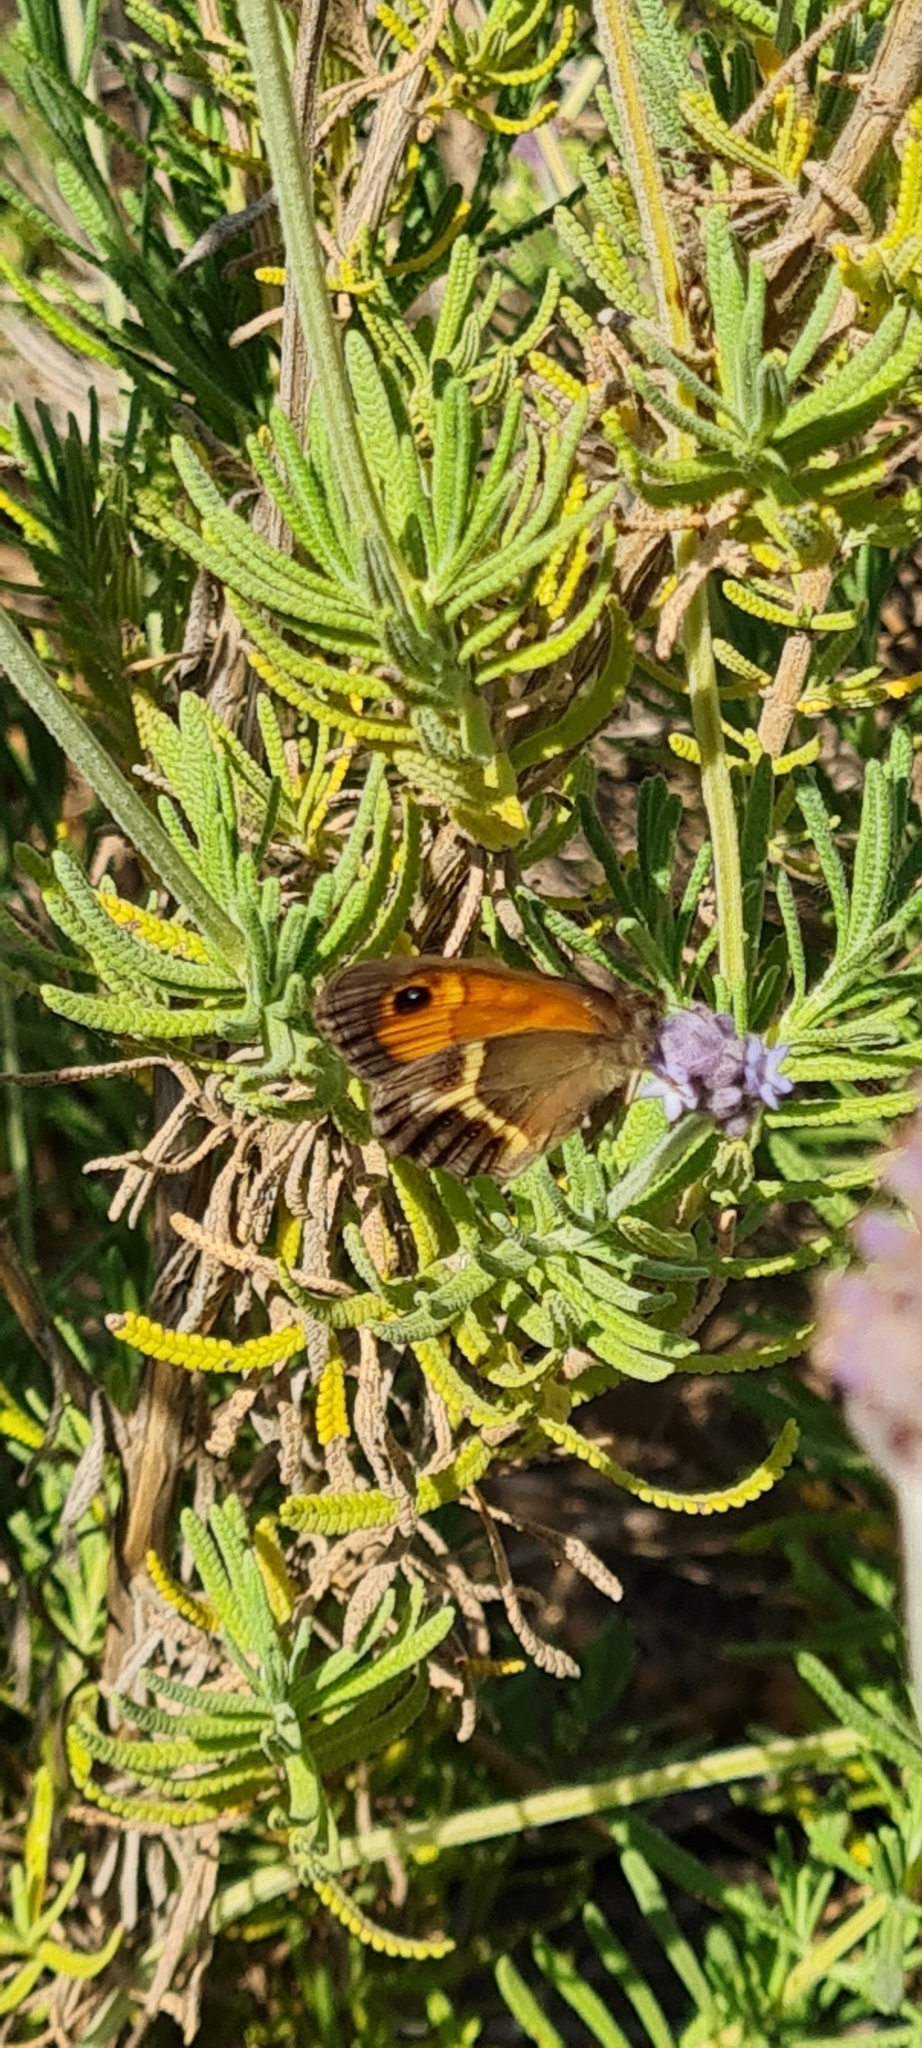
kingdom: Animalia
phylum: Arthropoda
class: Insecta
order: Lepidoptera
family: Nymphalidae
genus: Pyronia
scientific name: Pyronia bathseba
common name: Spanish gatekeeper
